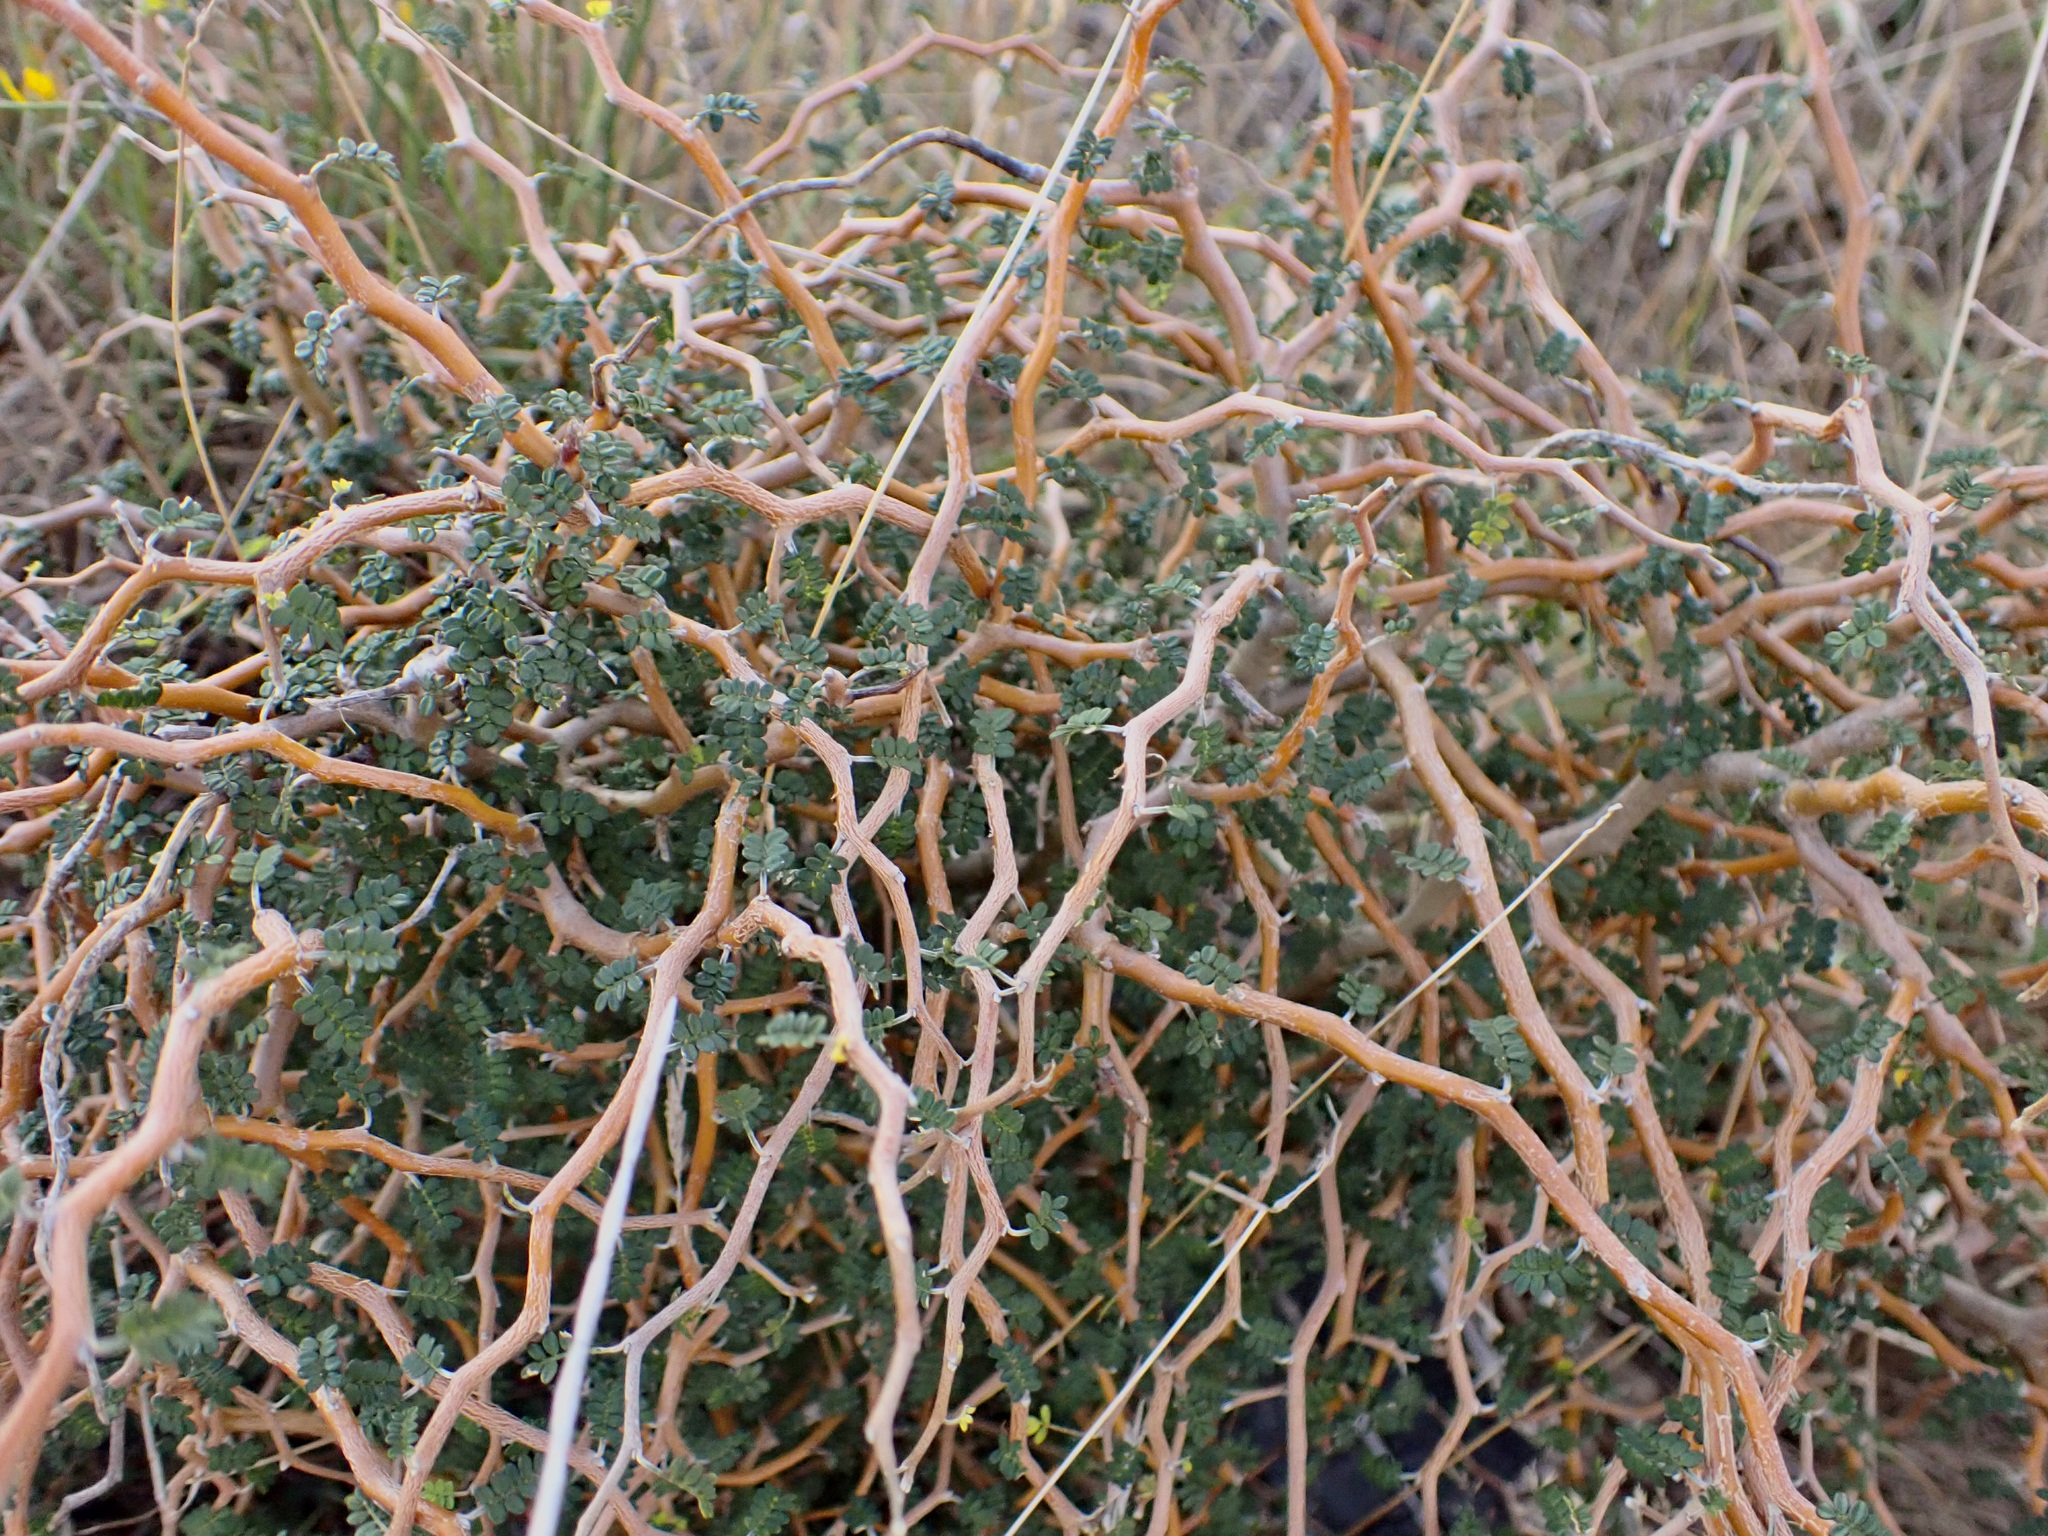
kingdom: Plantae
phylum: Tracheophyta
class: Magnoliopsida
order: Fabales
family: Fabaceae
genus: Sophora
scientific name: Sophora prostrata
